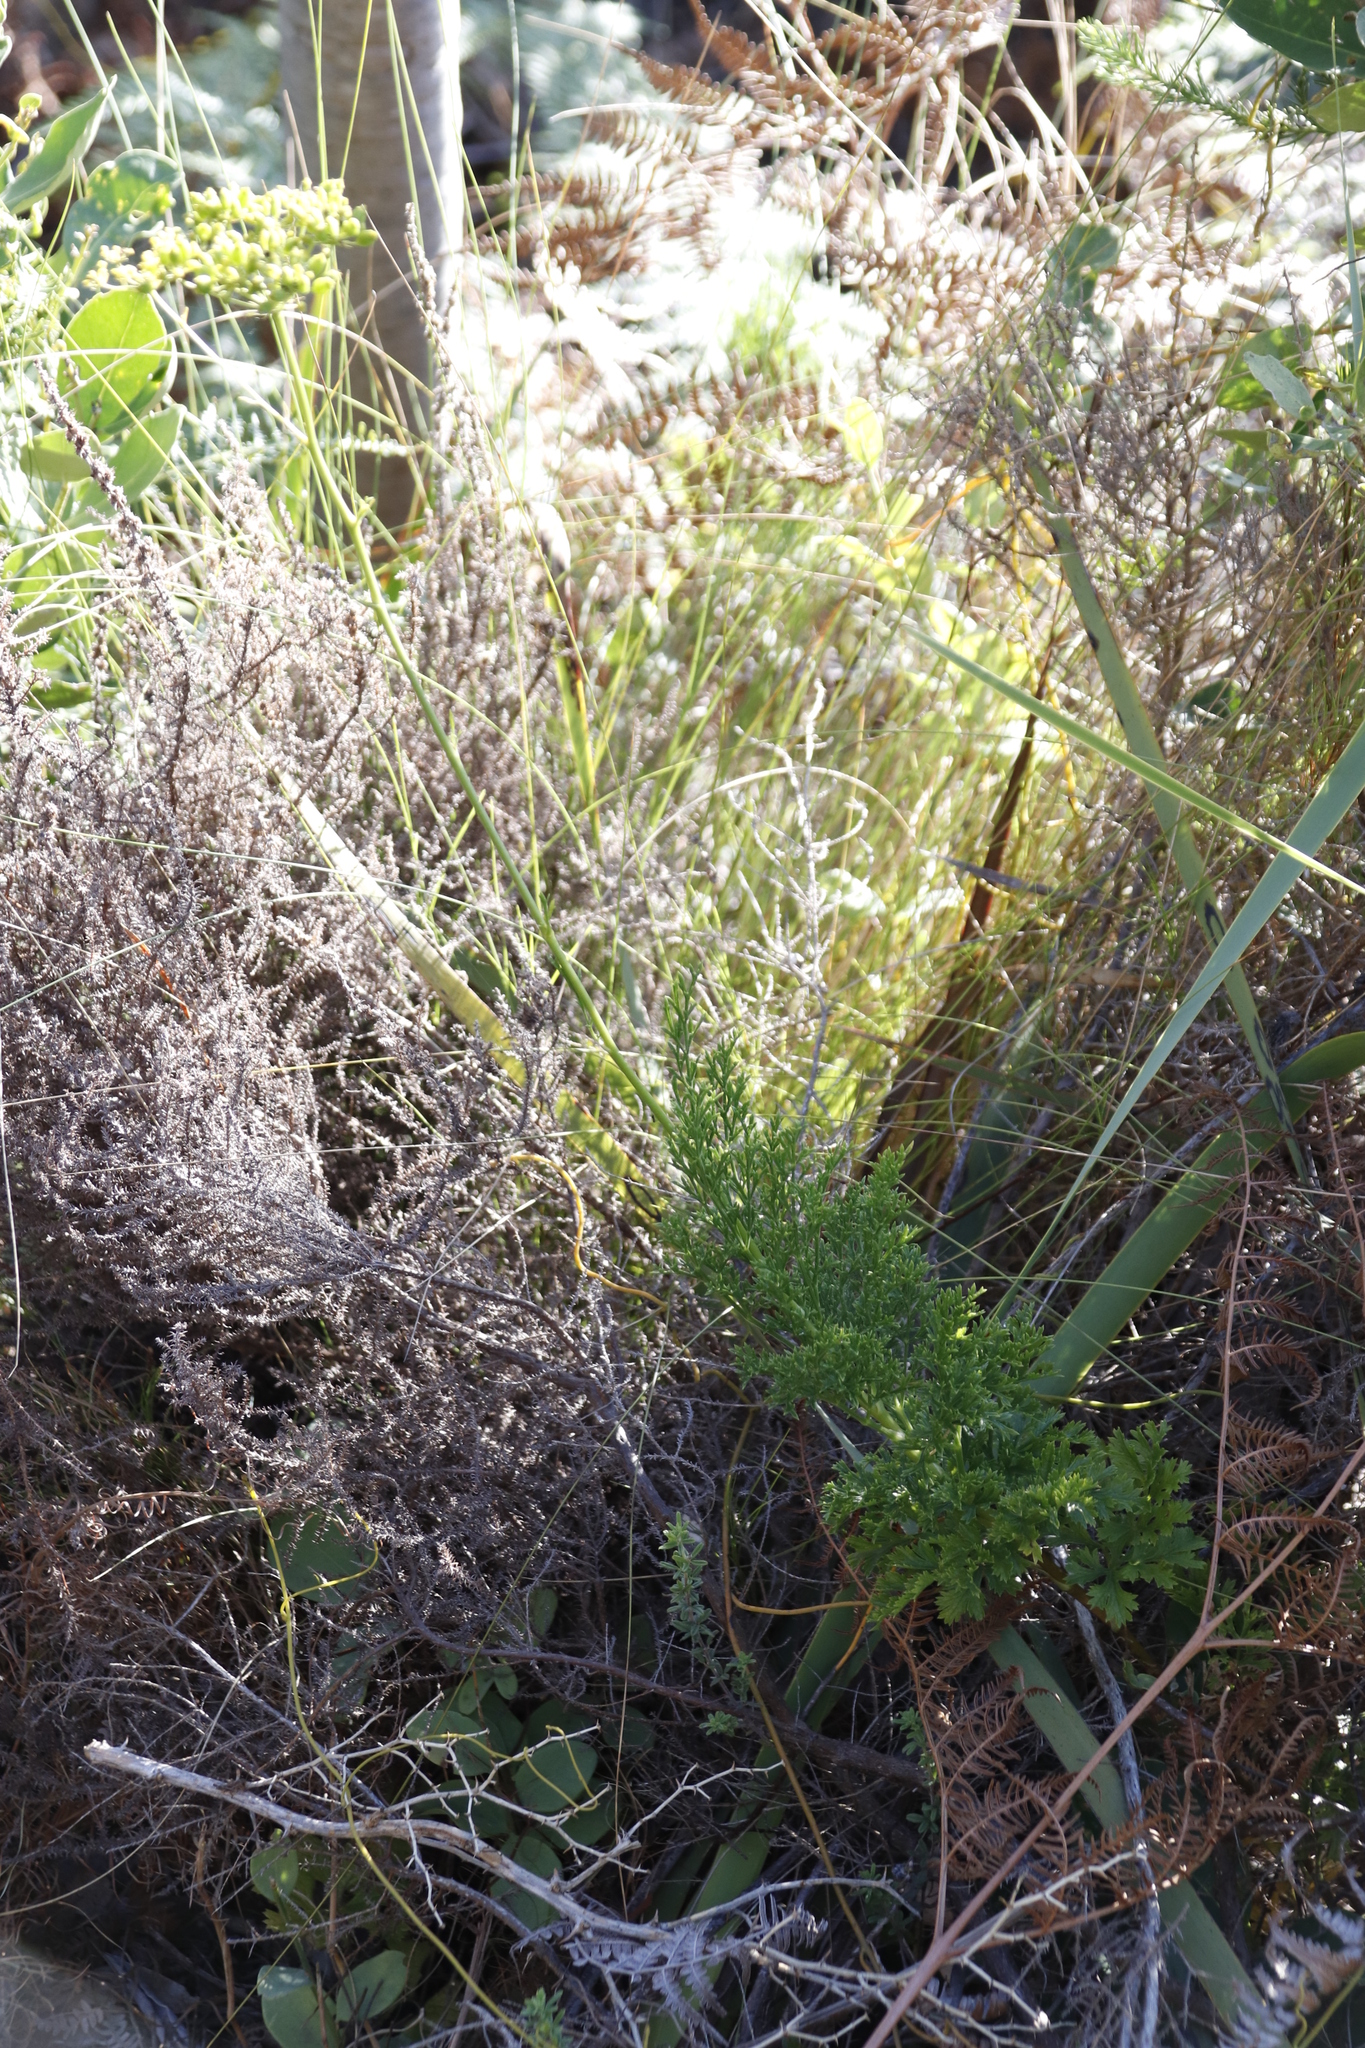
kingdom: Plantae
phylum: Tracheophyta
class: Magnoliopsida
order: Apiales
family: Apiaceae
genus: Glia
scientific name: Glia prolifera
